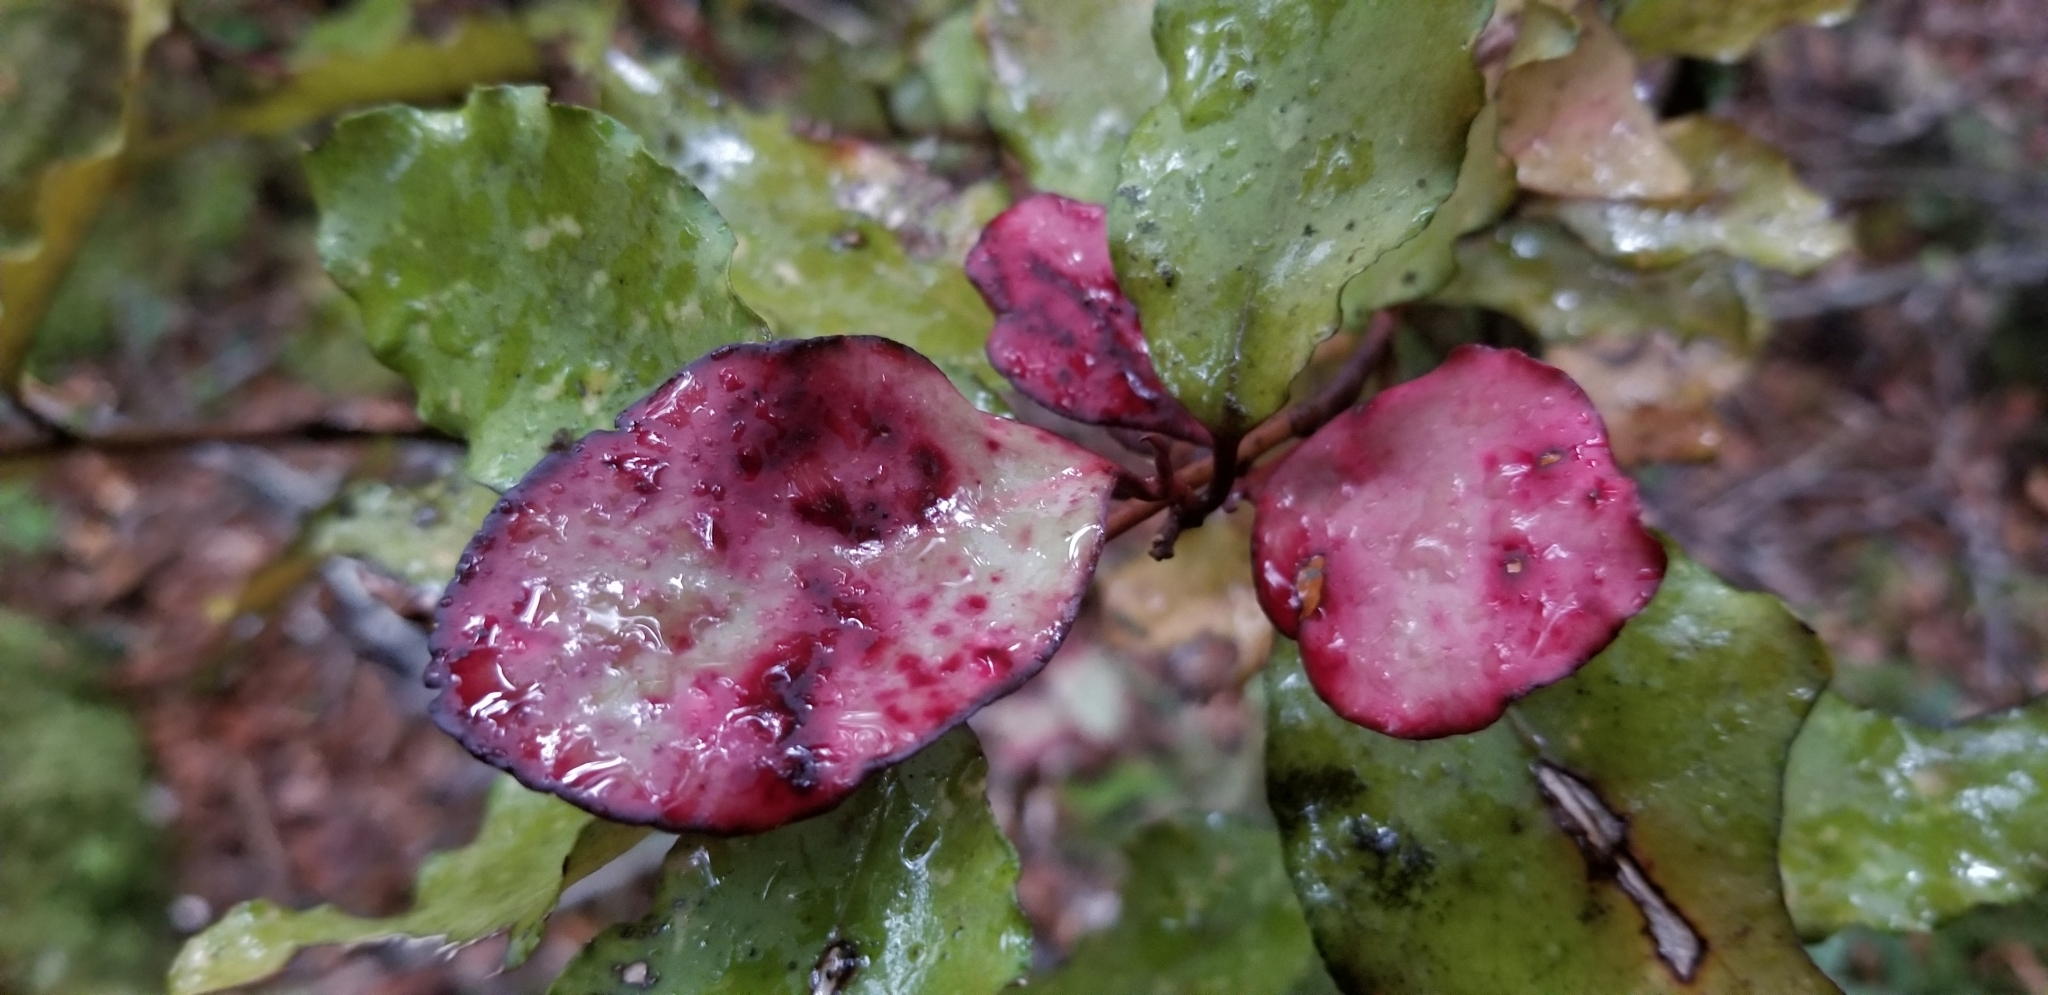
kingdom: Plantae
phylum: Tracheophyta
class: Magnoliopsida
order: Canellales
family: Winteraceae
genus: Pseudowintera
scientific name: Pseudowintera colorata
